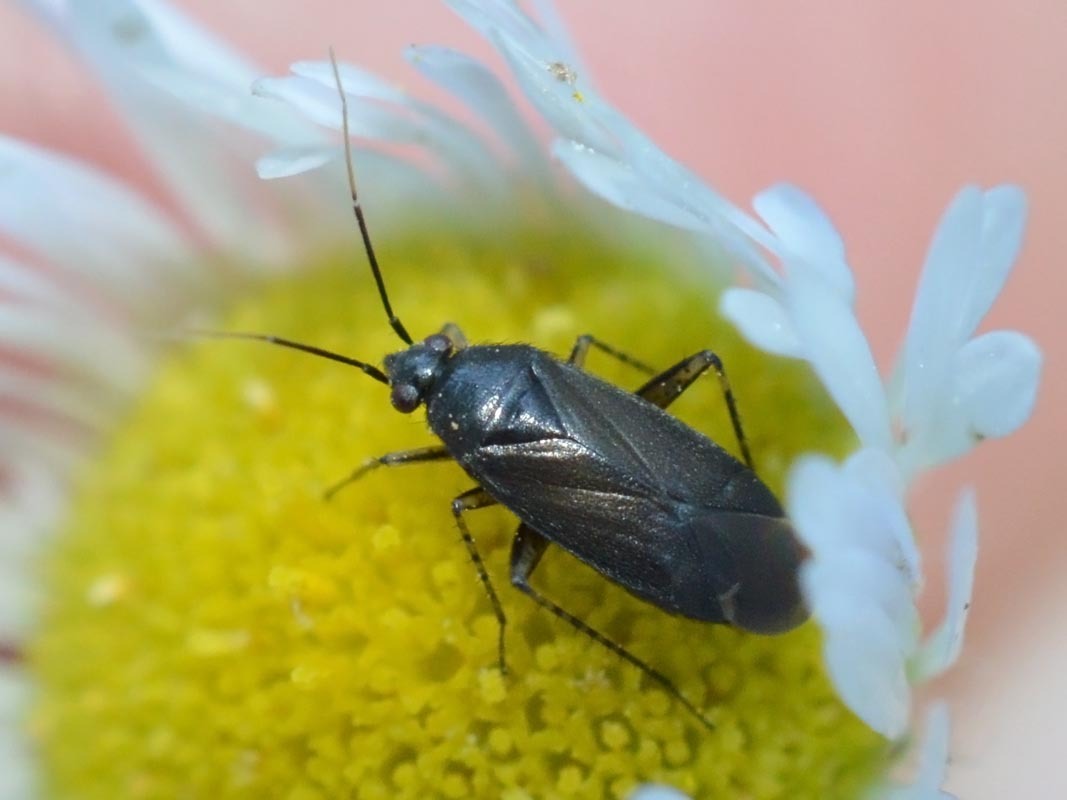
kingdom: Animalia
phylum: Arthropoda
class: Insecta
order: Hemiptera
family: Miridae
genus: Plagiognathus
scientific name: Plagiognathus arbustorum
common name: Plant bug
